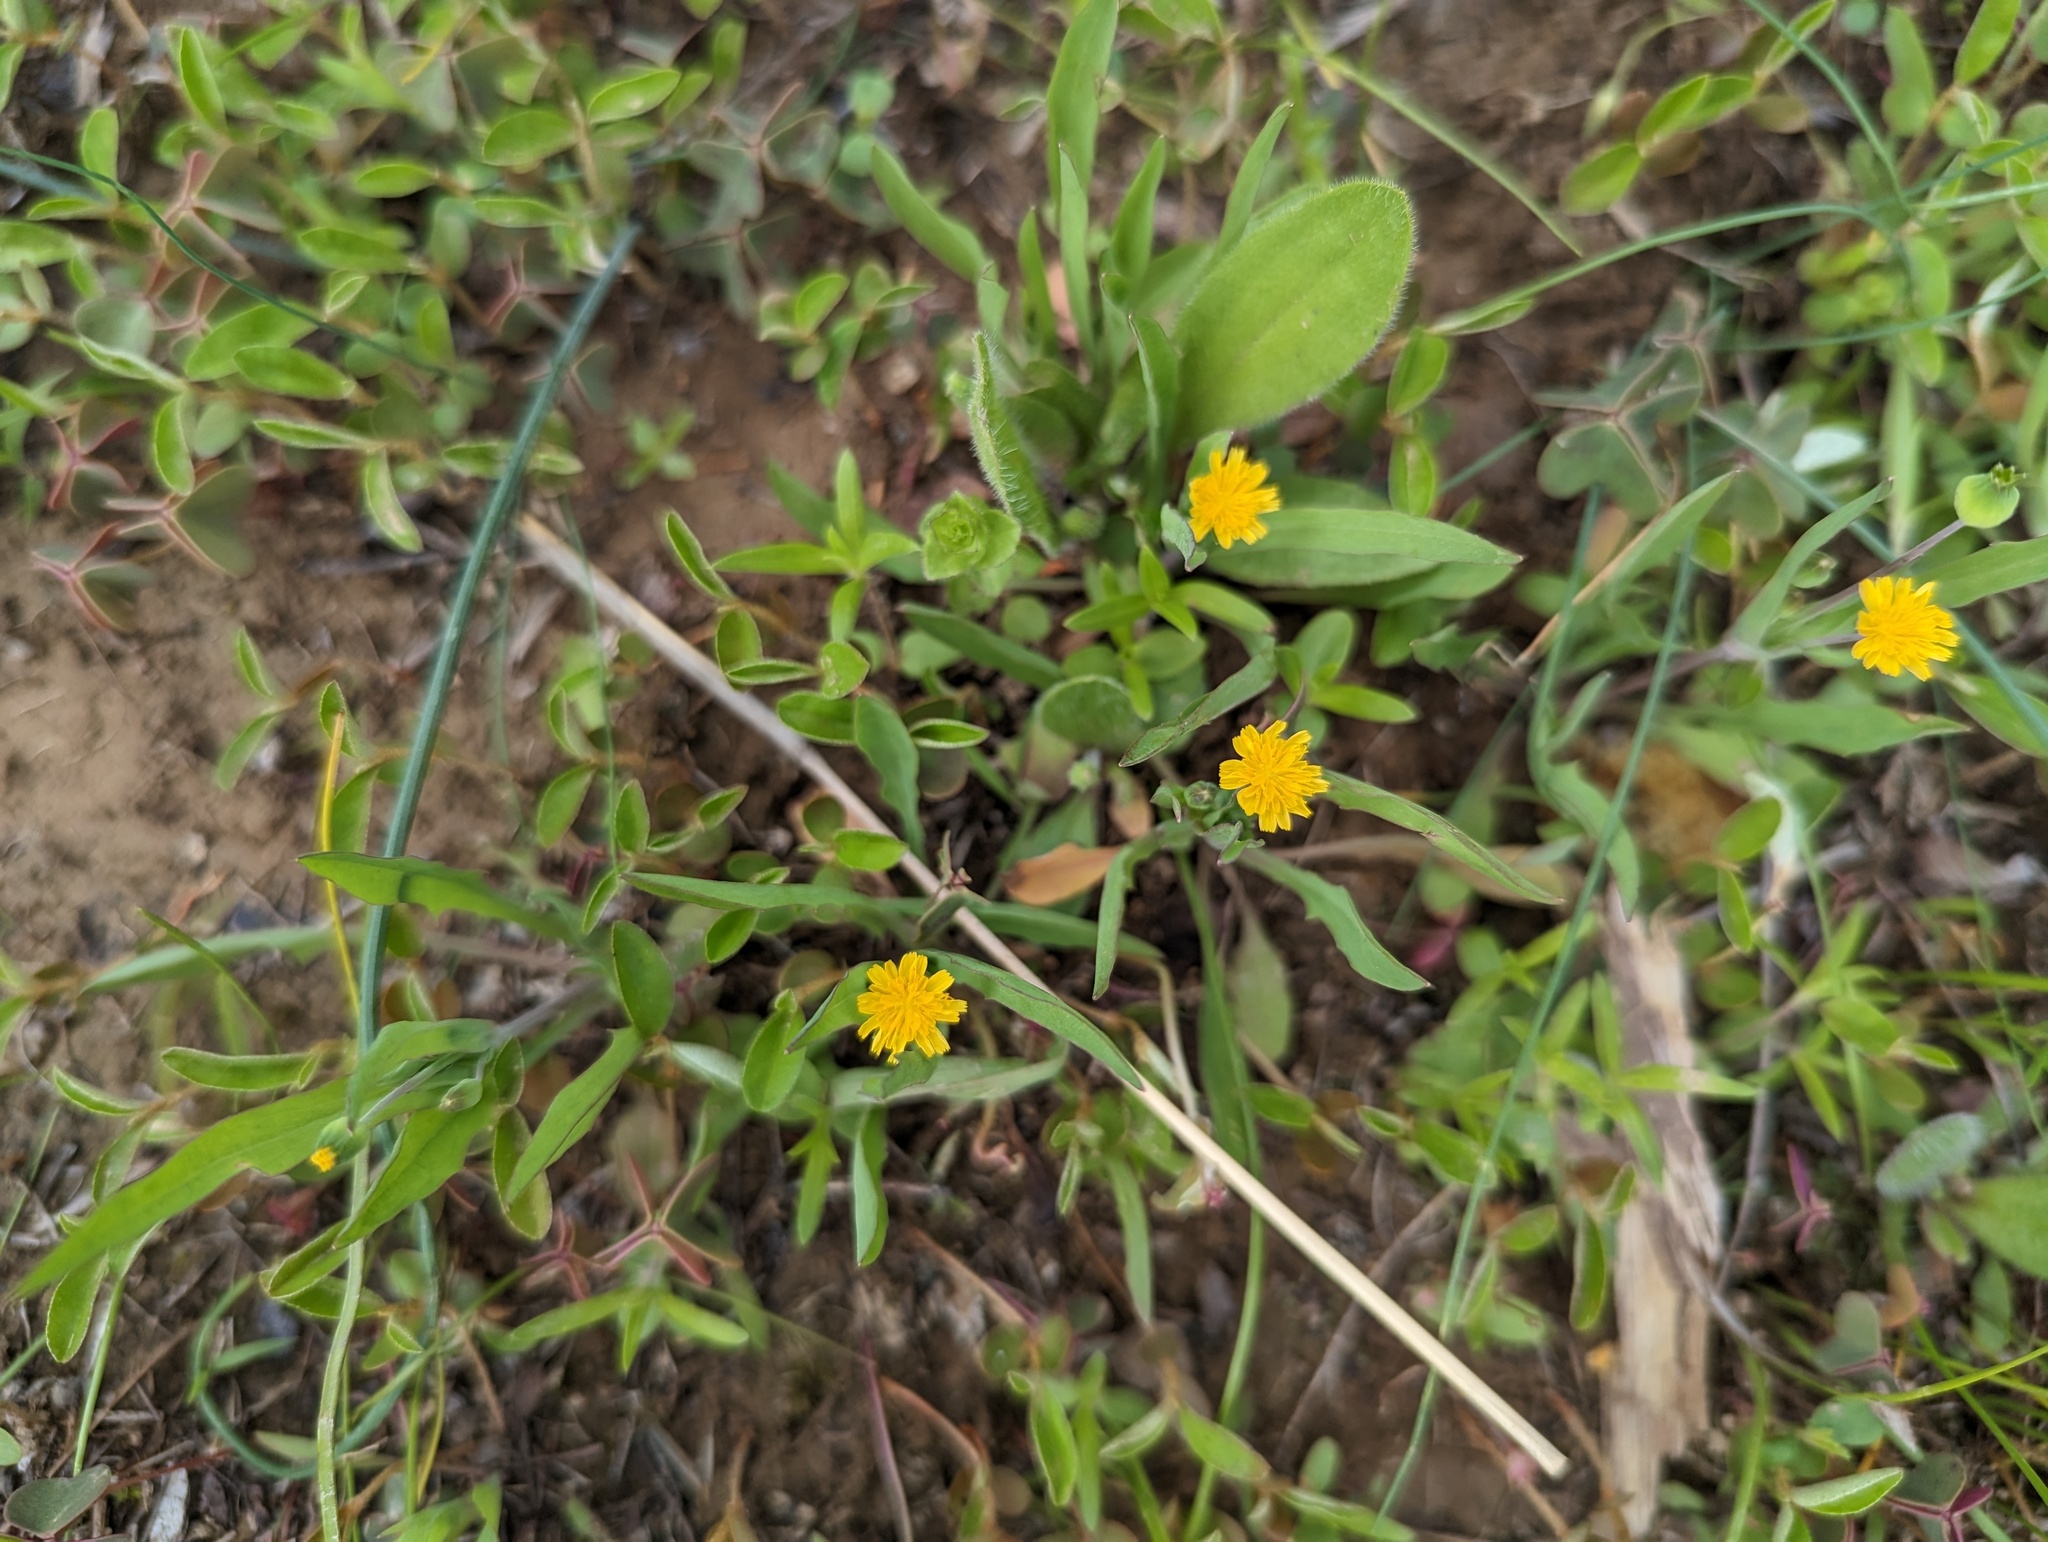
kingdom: Plantae
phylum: Tracheophyta
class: Magnoliopsida
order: Asterales
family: Asteraceae
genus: Krigia
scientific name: Krigia cespitosa
